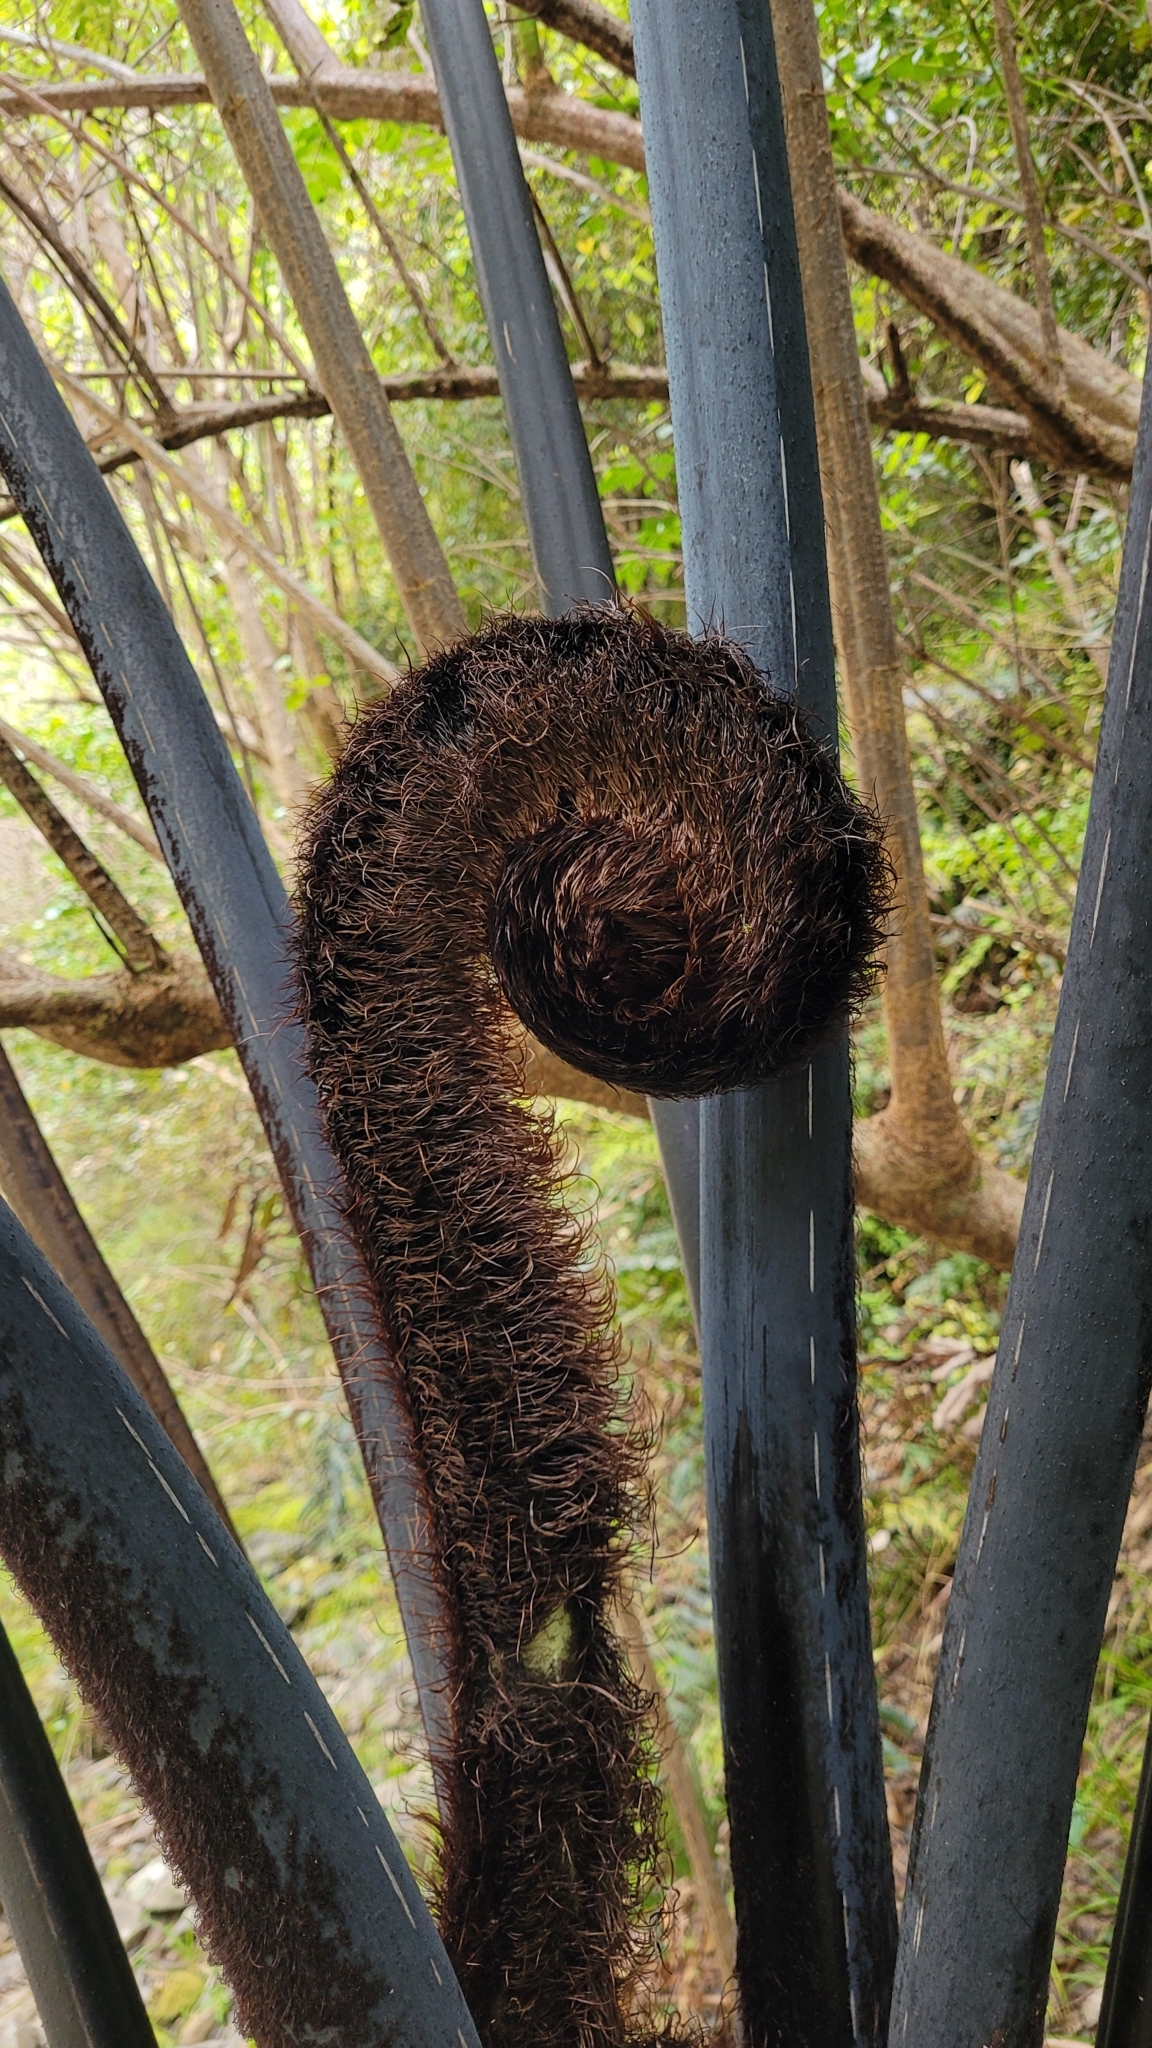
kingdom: Plantae
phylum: Tracheophyta
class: Polypodiopsida
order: Cyatheales
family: Cyatheaceae
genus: Sphaeropteris
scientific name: Sphaeropteris medullaris
